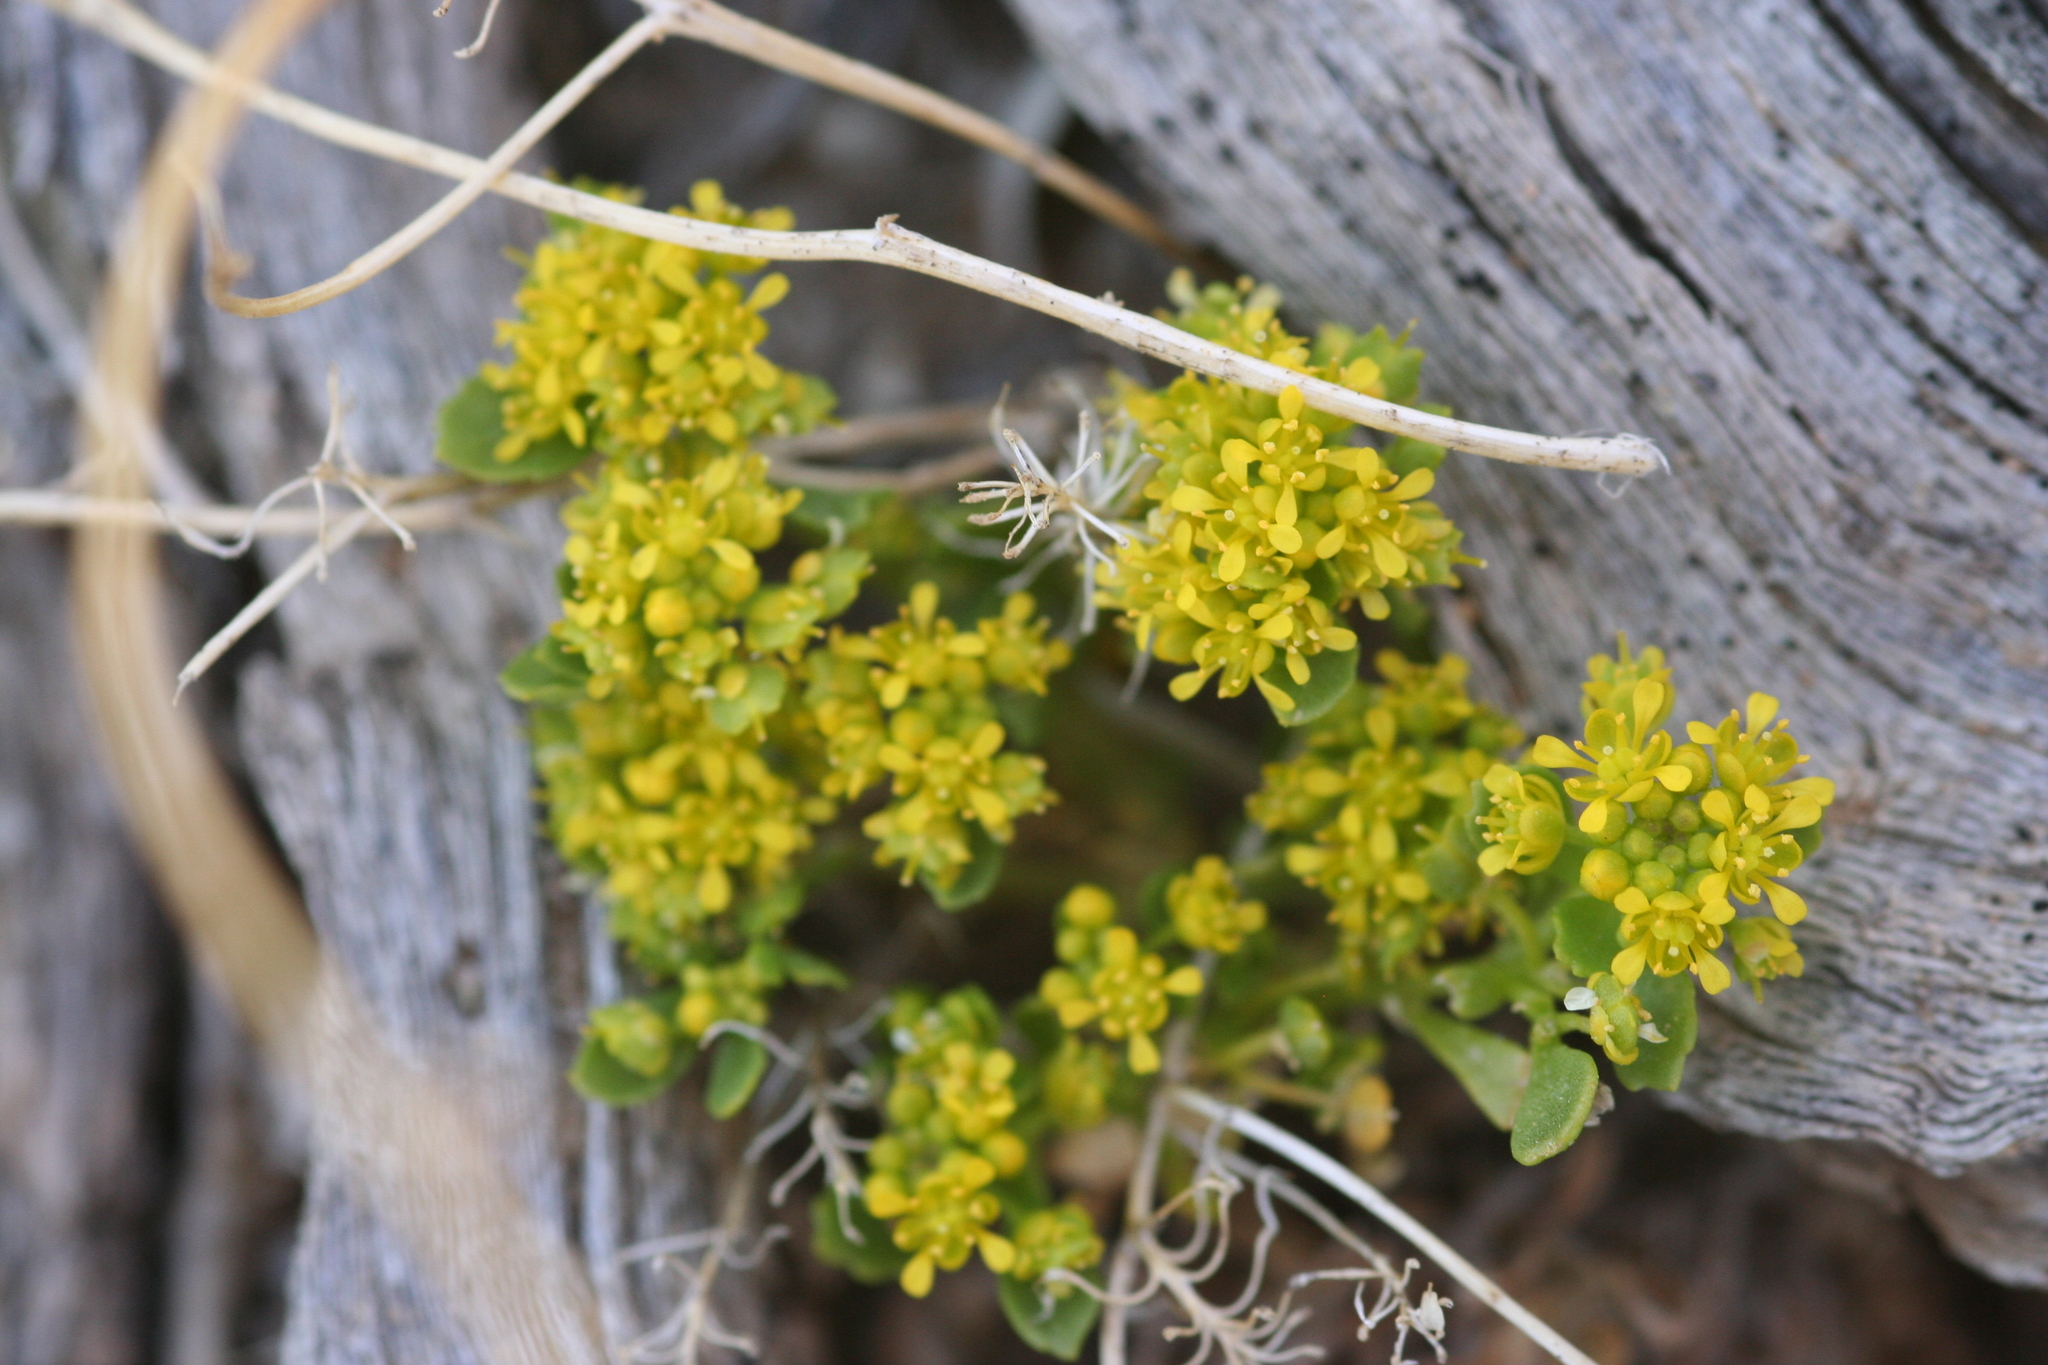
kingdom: Plantae
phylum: Tracheophyta
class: Magnoliopsida
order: Brassicales
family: Brassicaceae
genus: Lepidium
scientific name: Lepidium flavum
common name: Yellow pepperwort
